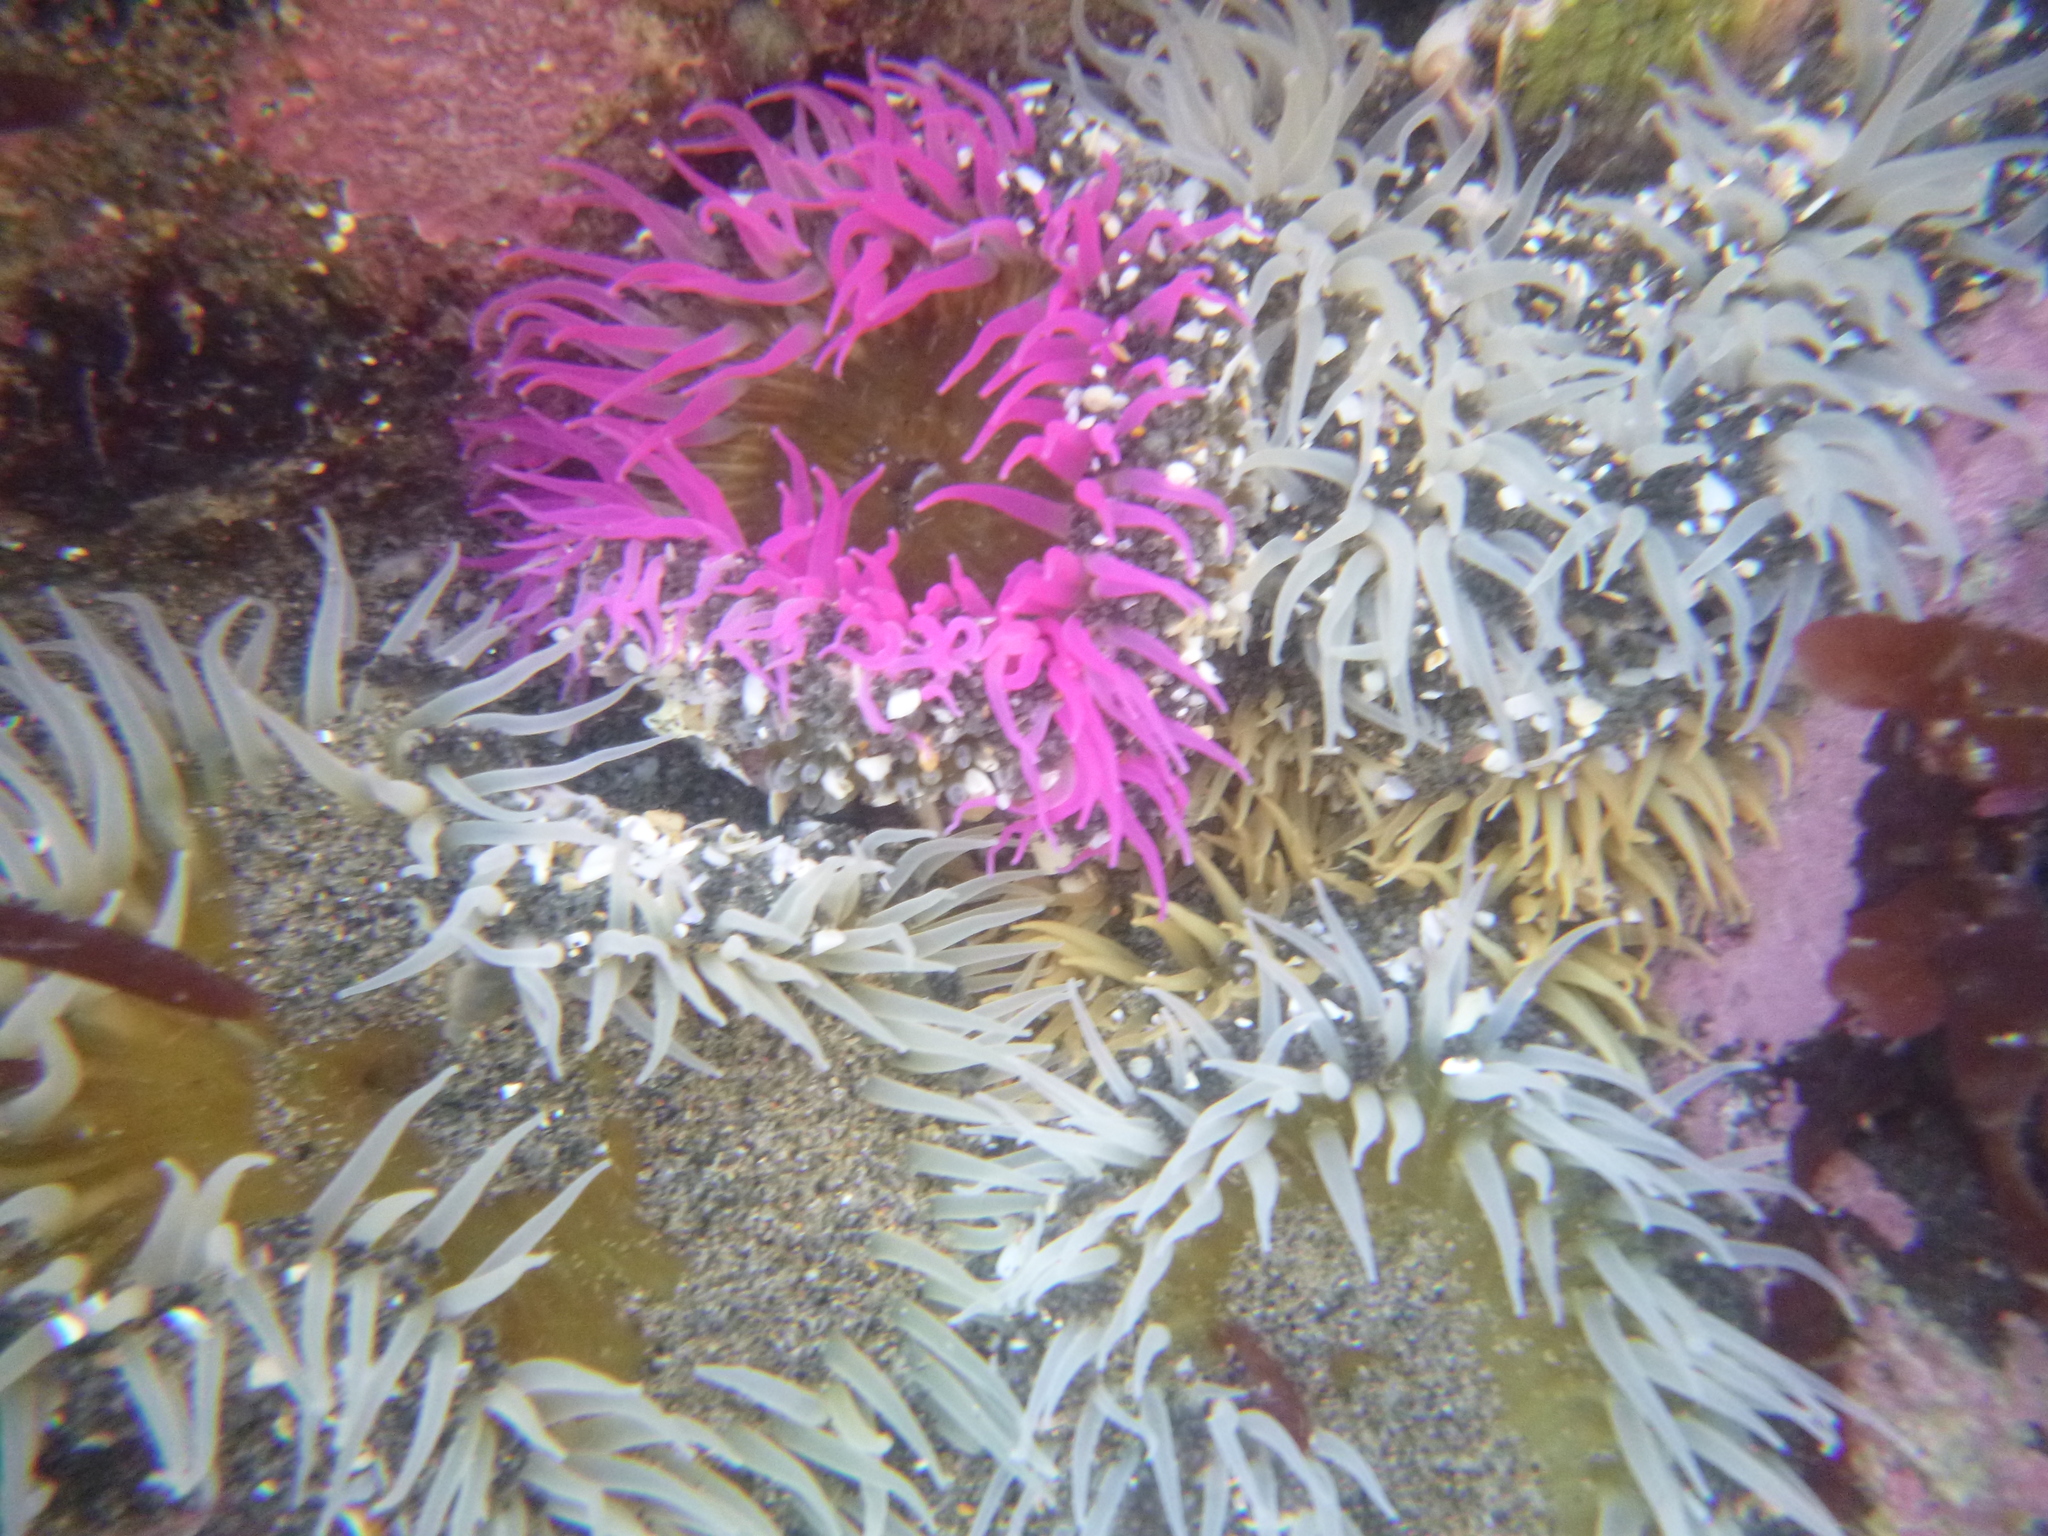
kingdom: Animalia
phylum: Cnidaria
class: Anthozoa
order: Actiniaria
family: Actiniidae
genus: Oulactis
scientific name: Oulactis magna
